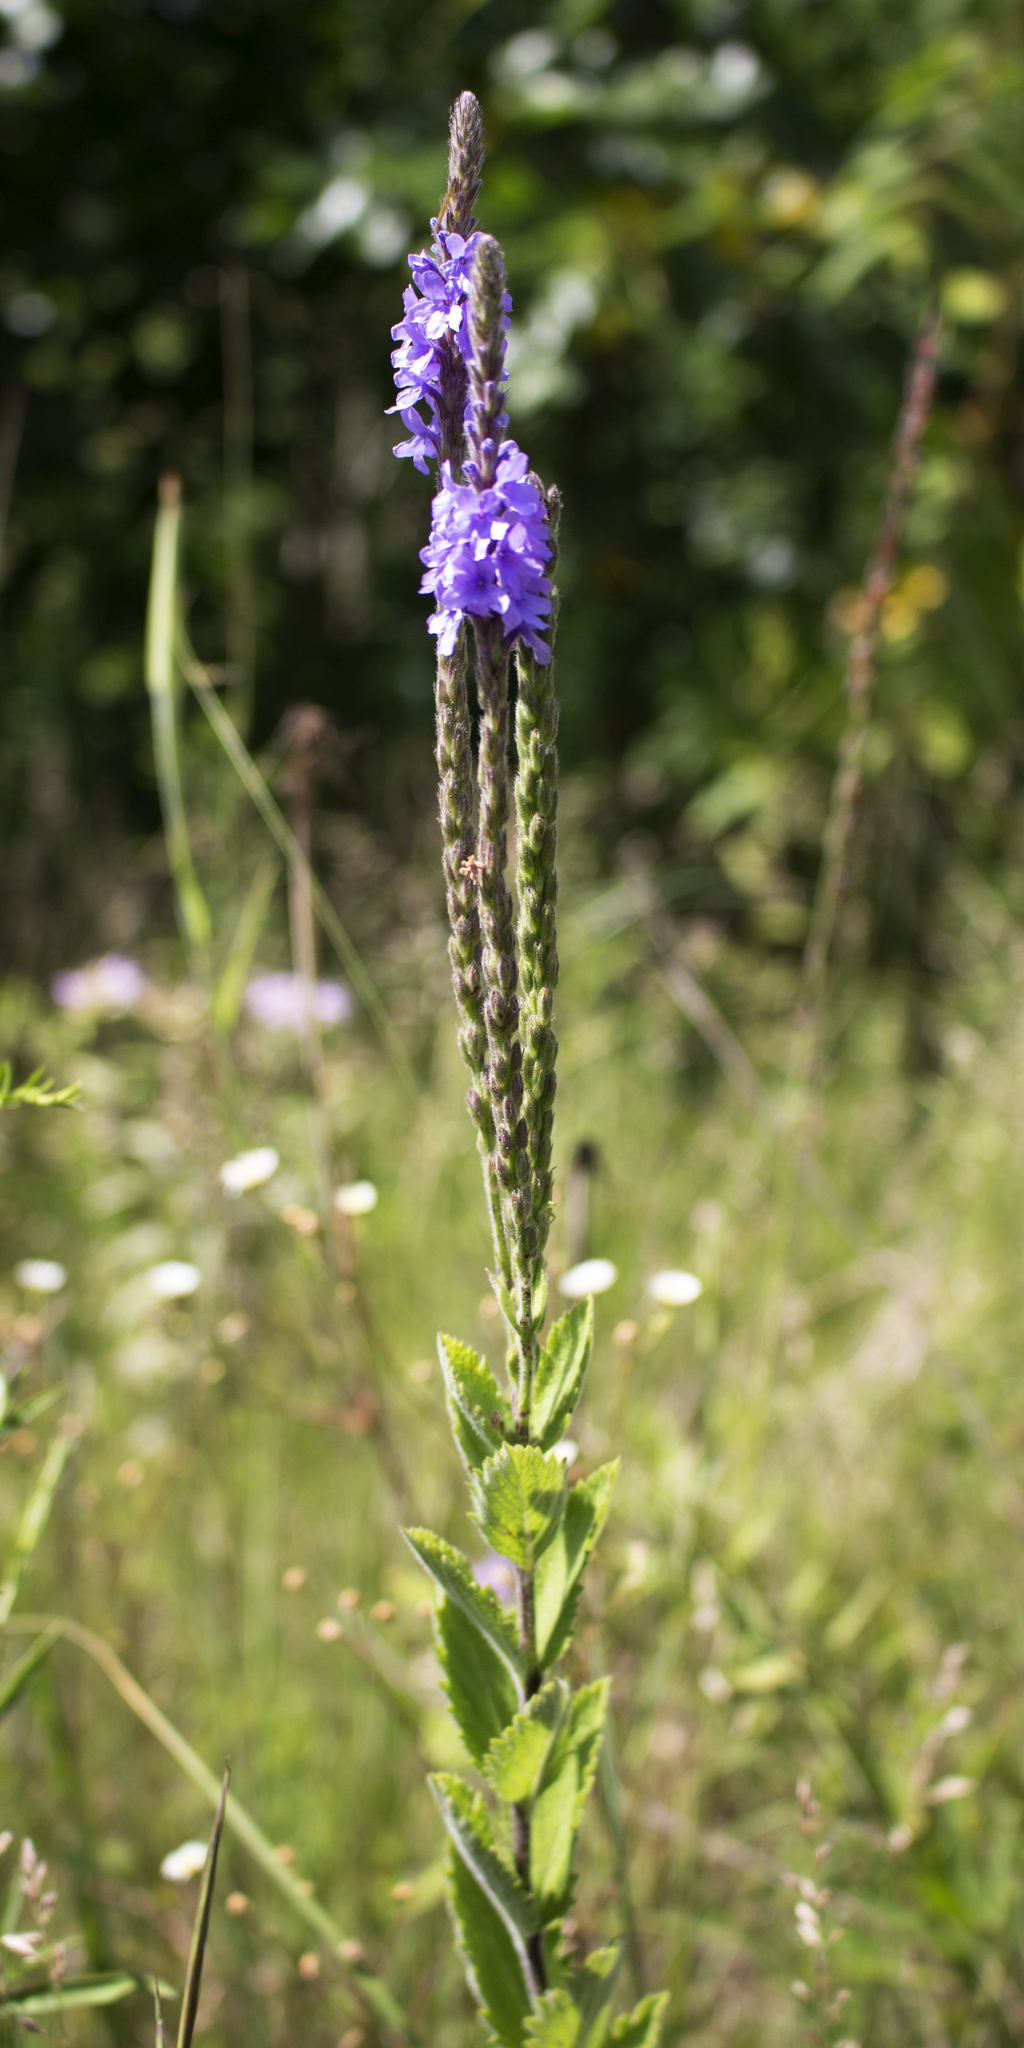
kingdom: Plantae
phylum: Tracheophyta
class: Magnoliopsida
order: Lamiales
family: Verbenaceae
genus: Verbena
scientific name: Verbena stricta
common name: Hoary vervain
